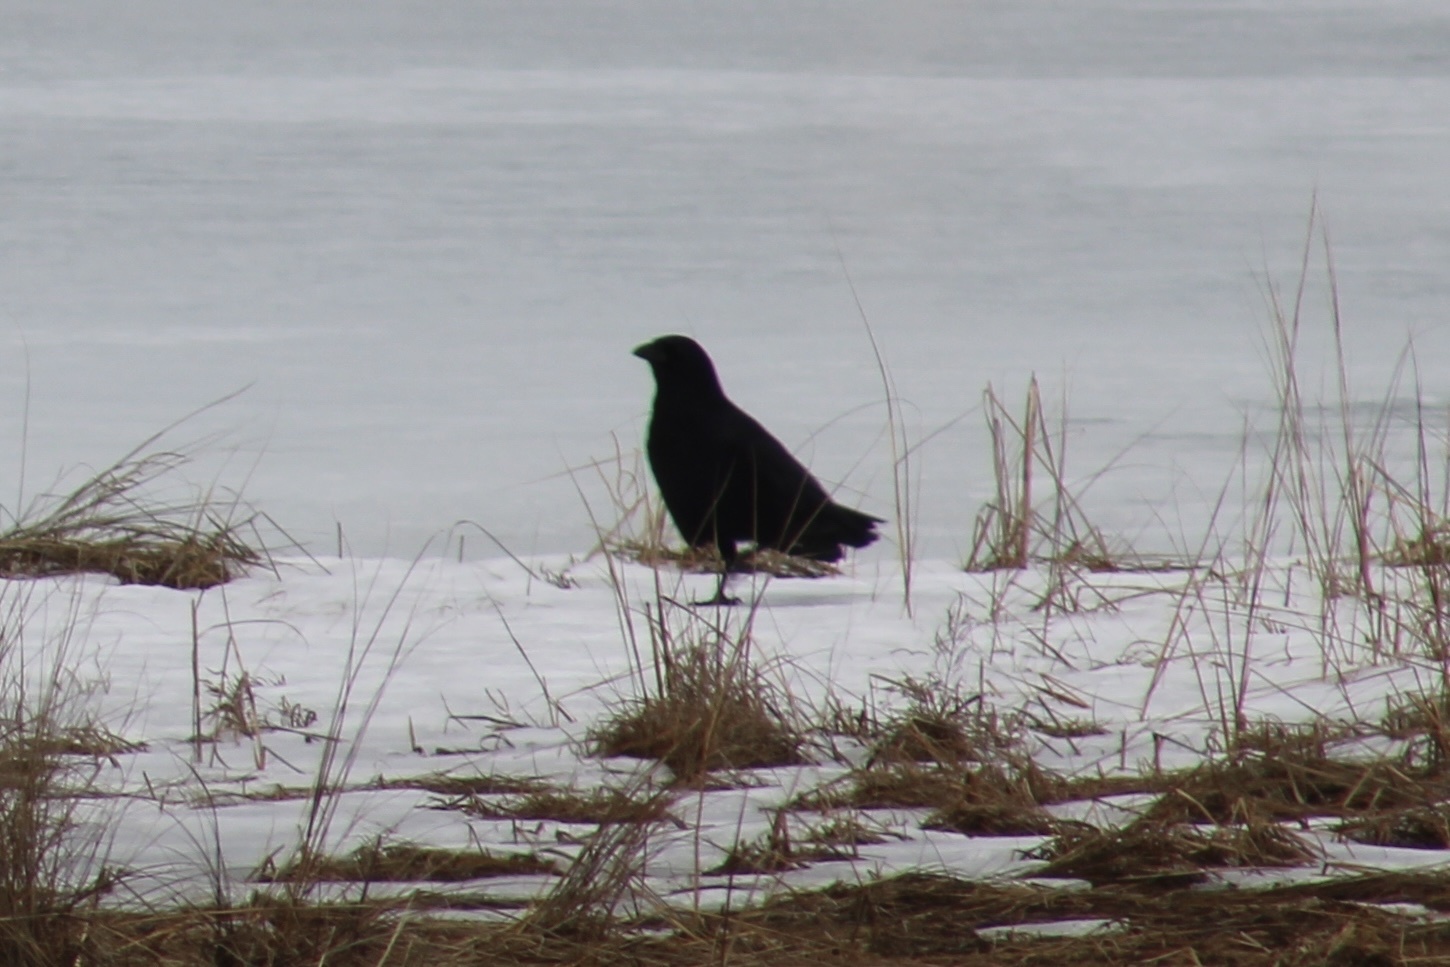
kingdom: Animalia
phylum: Chordata
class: Aves
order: Passeriformes
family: Corvidae
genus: Corvus
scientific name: Corvus brachyrhynchos
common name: American crow
